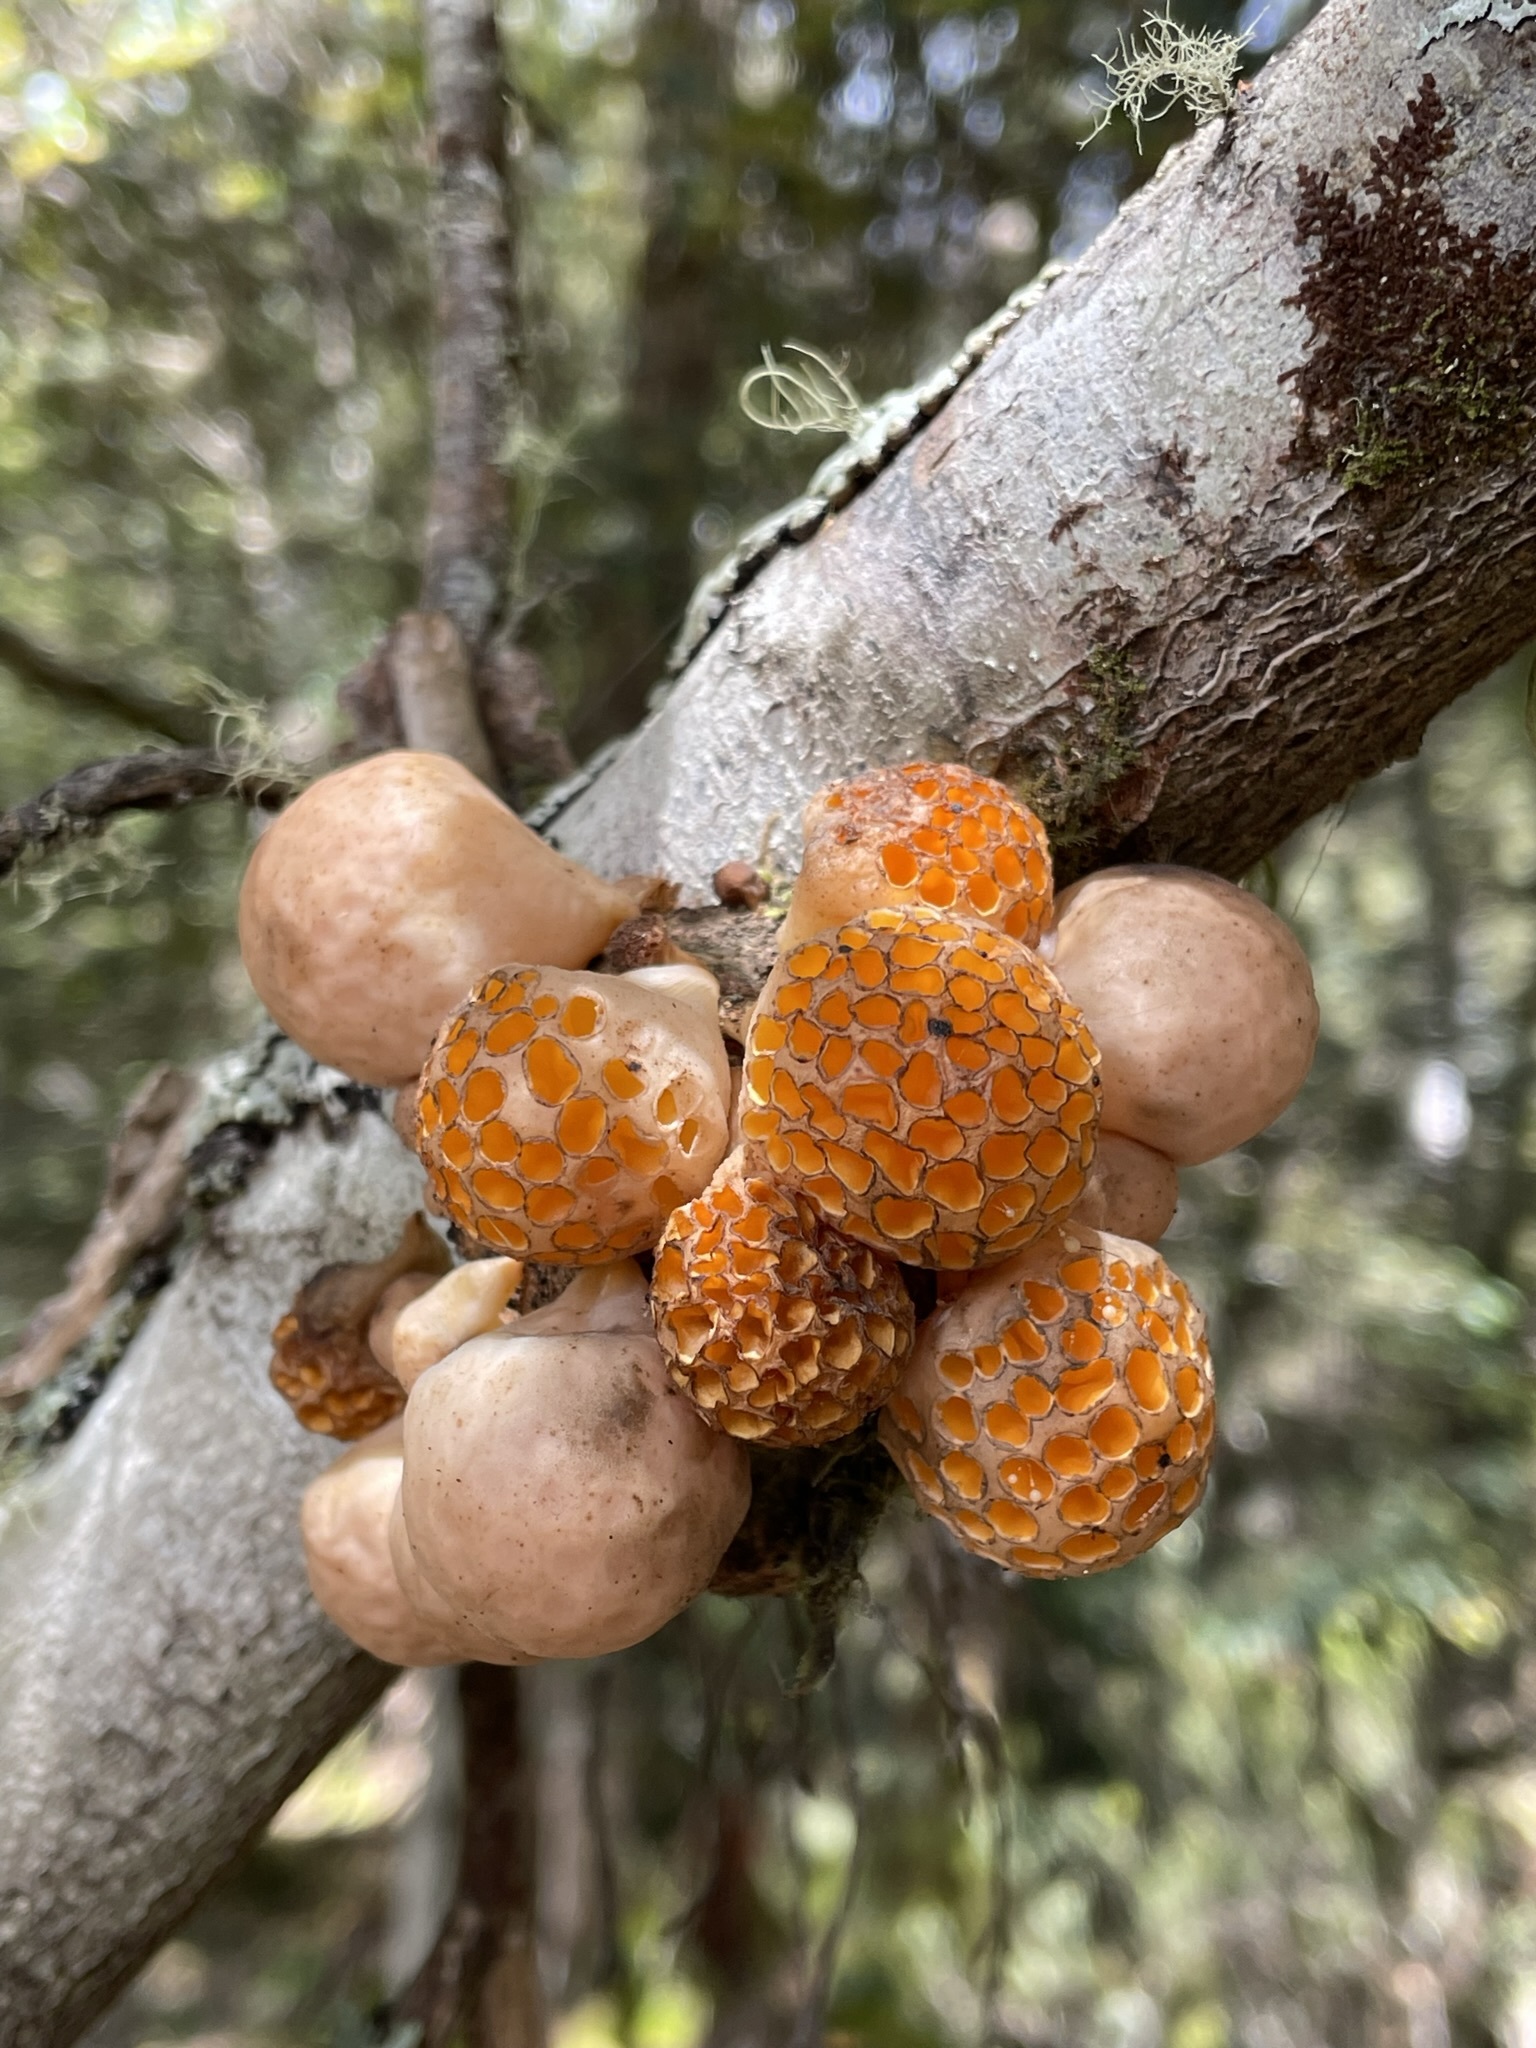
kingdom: Fungi
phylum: Ascomycota
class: Leotiomycetes
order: Cyttariales
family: Cyttariaceae
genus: Cyttaria
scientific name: Cyttaria gunnii
